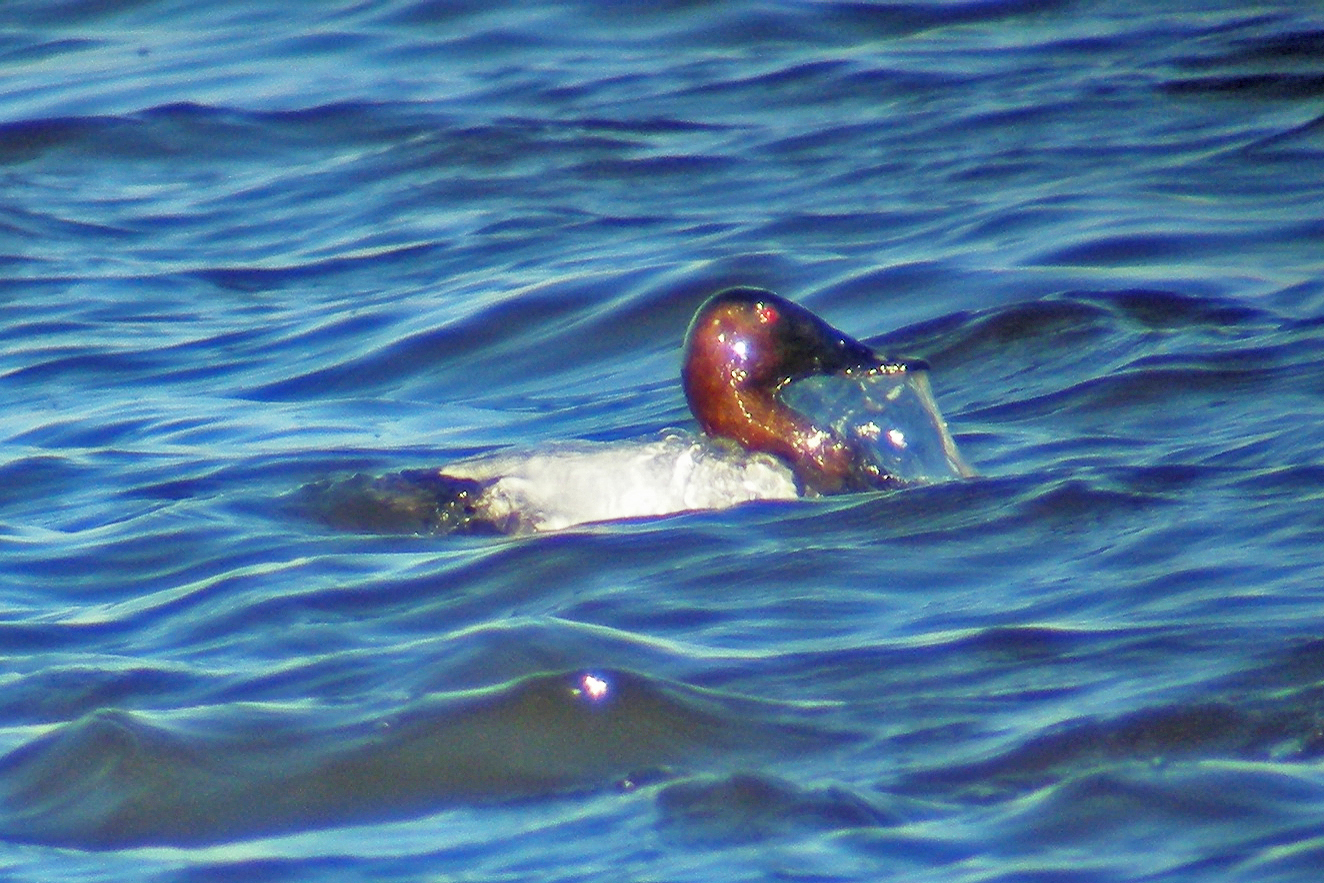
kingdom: Animalia
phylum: Chordata
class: Aves
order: Anseriformes
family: Anatidae
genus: Aythya
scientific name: Aythya valisineria
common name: Canvasback
